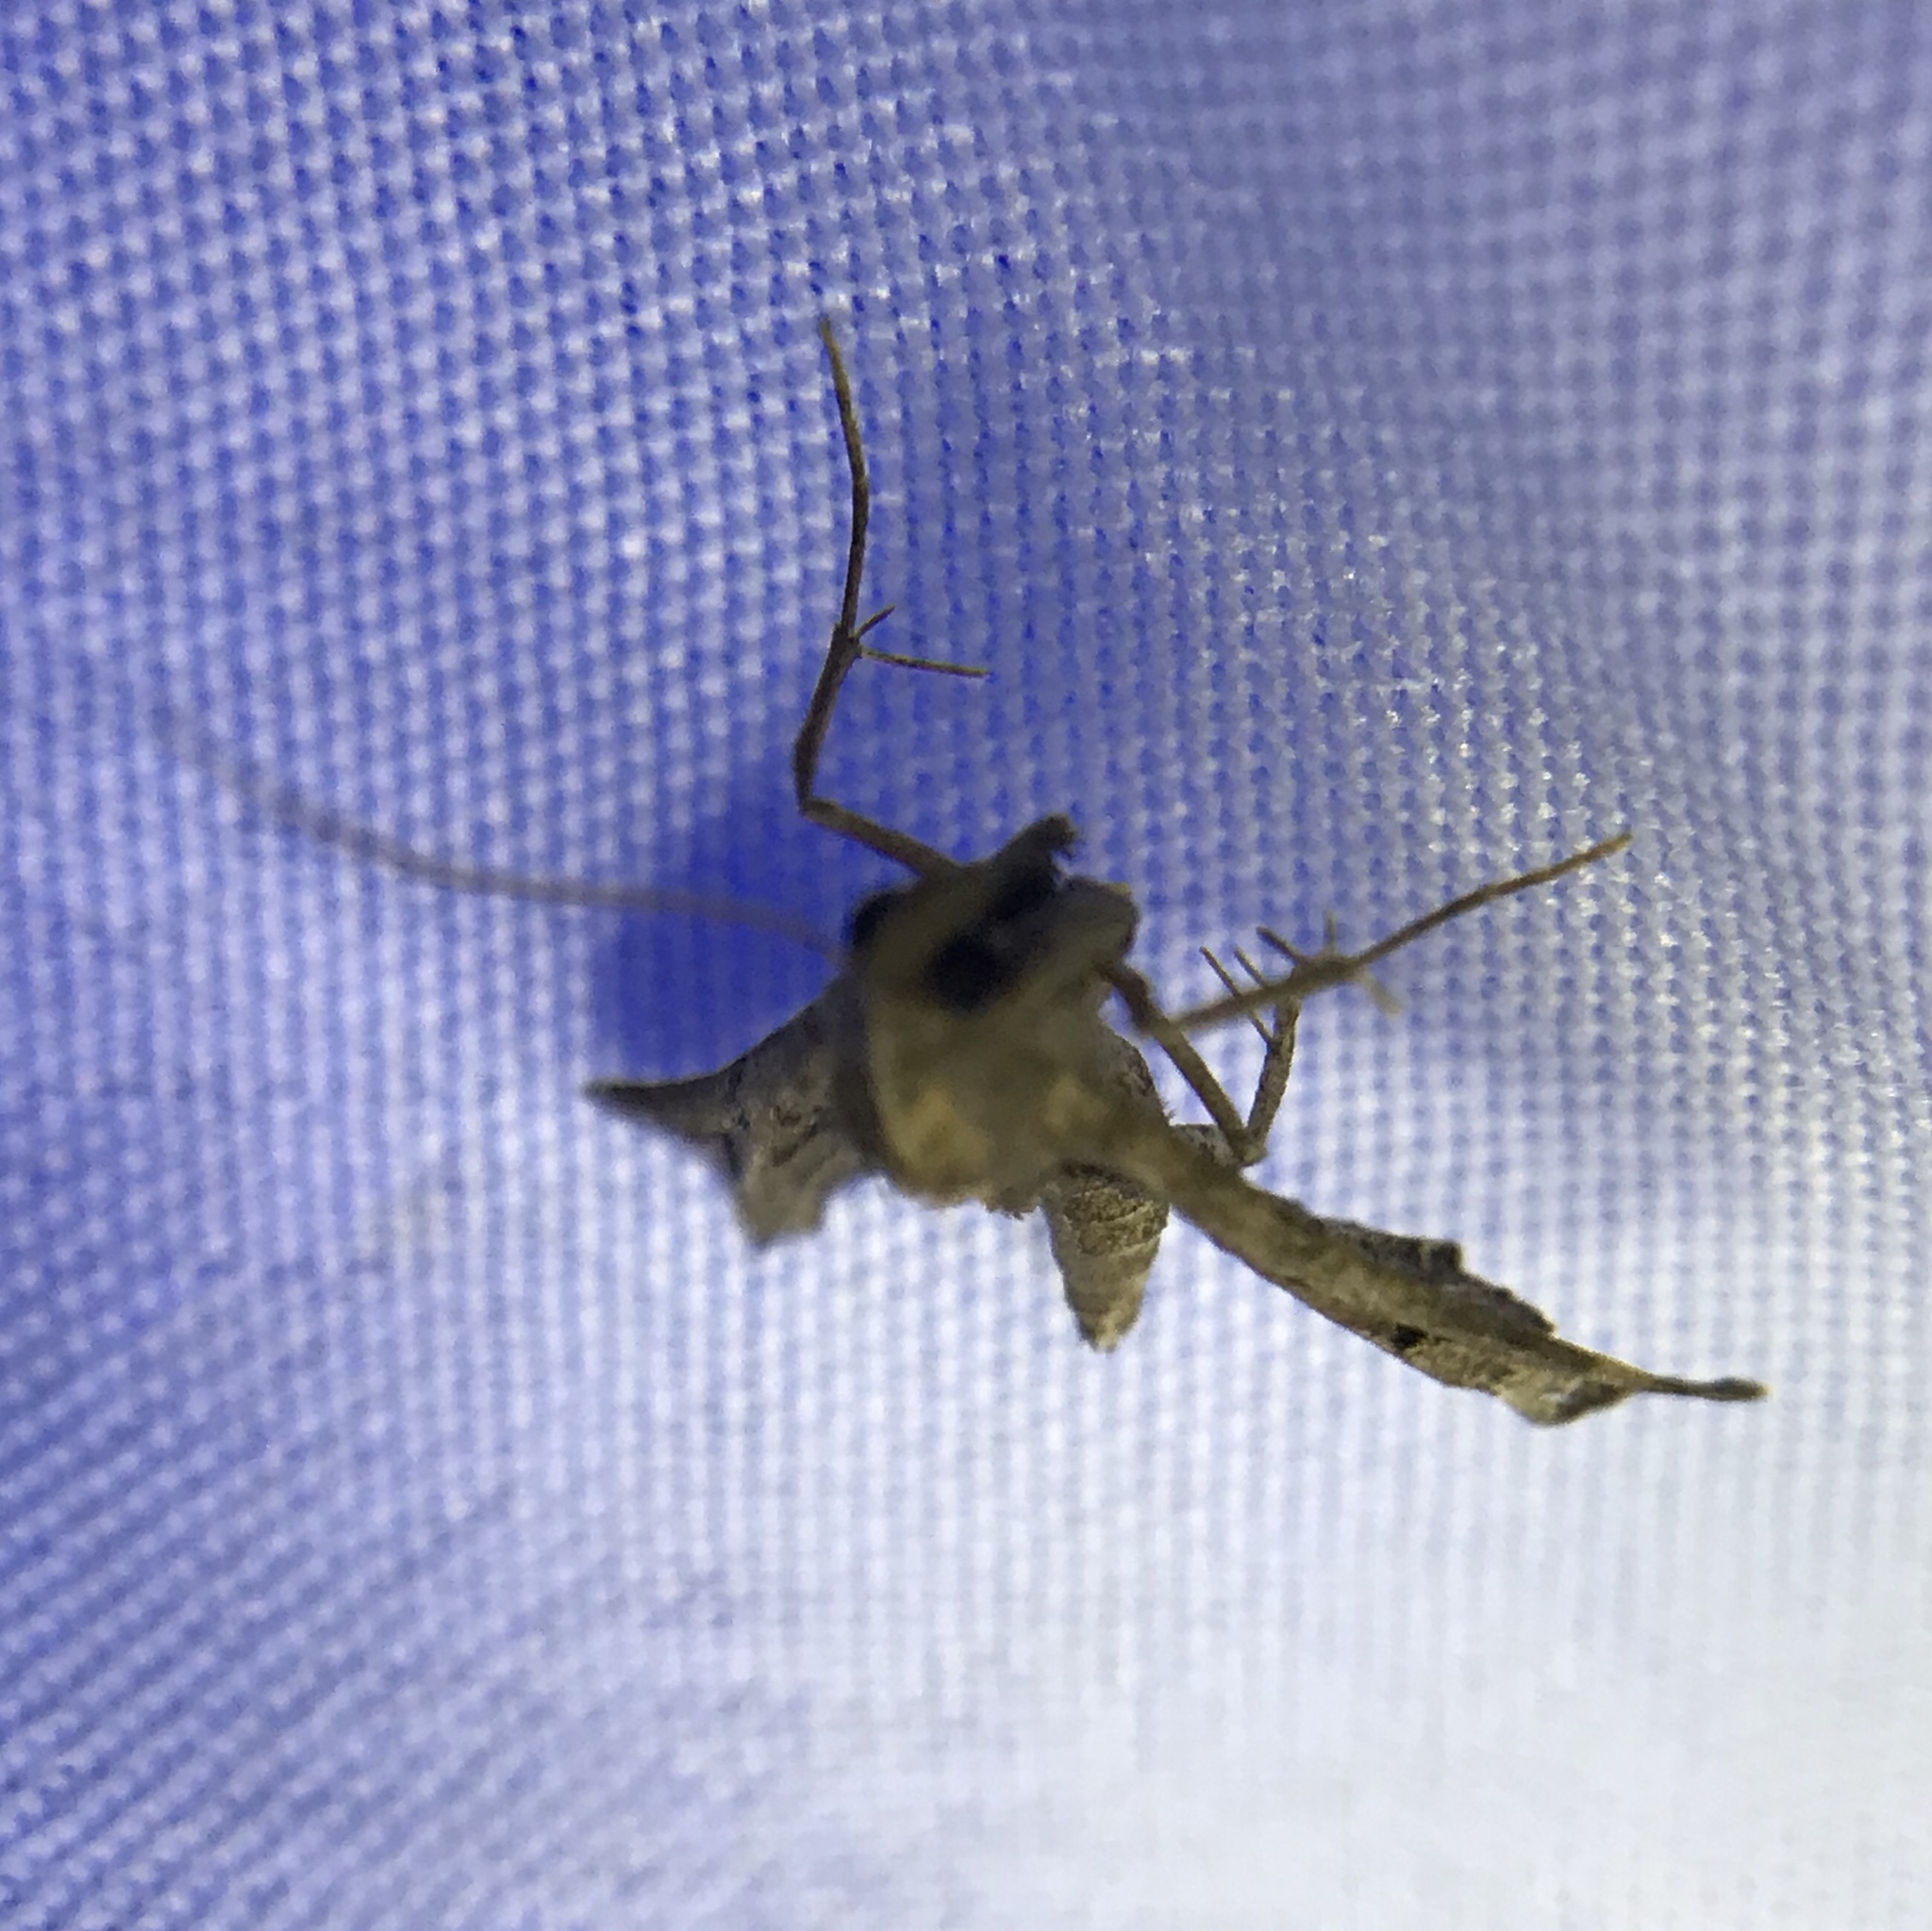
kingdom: Animalia
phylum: Arthropoda
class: Insecta
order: Lepidoptera
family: Erebidae
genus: Palthis
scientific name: Palthis asopialis
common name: Faint-spotted palthis moth
